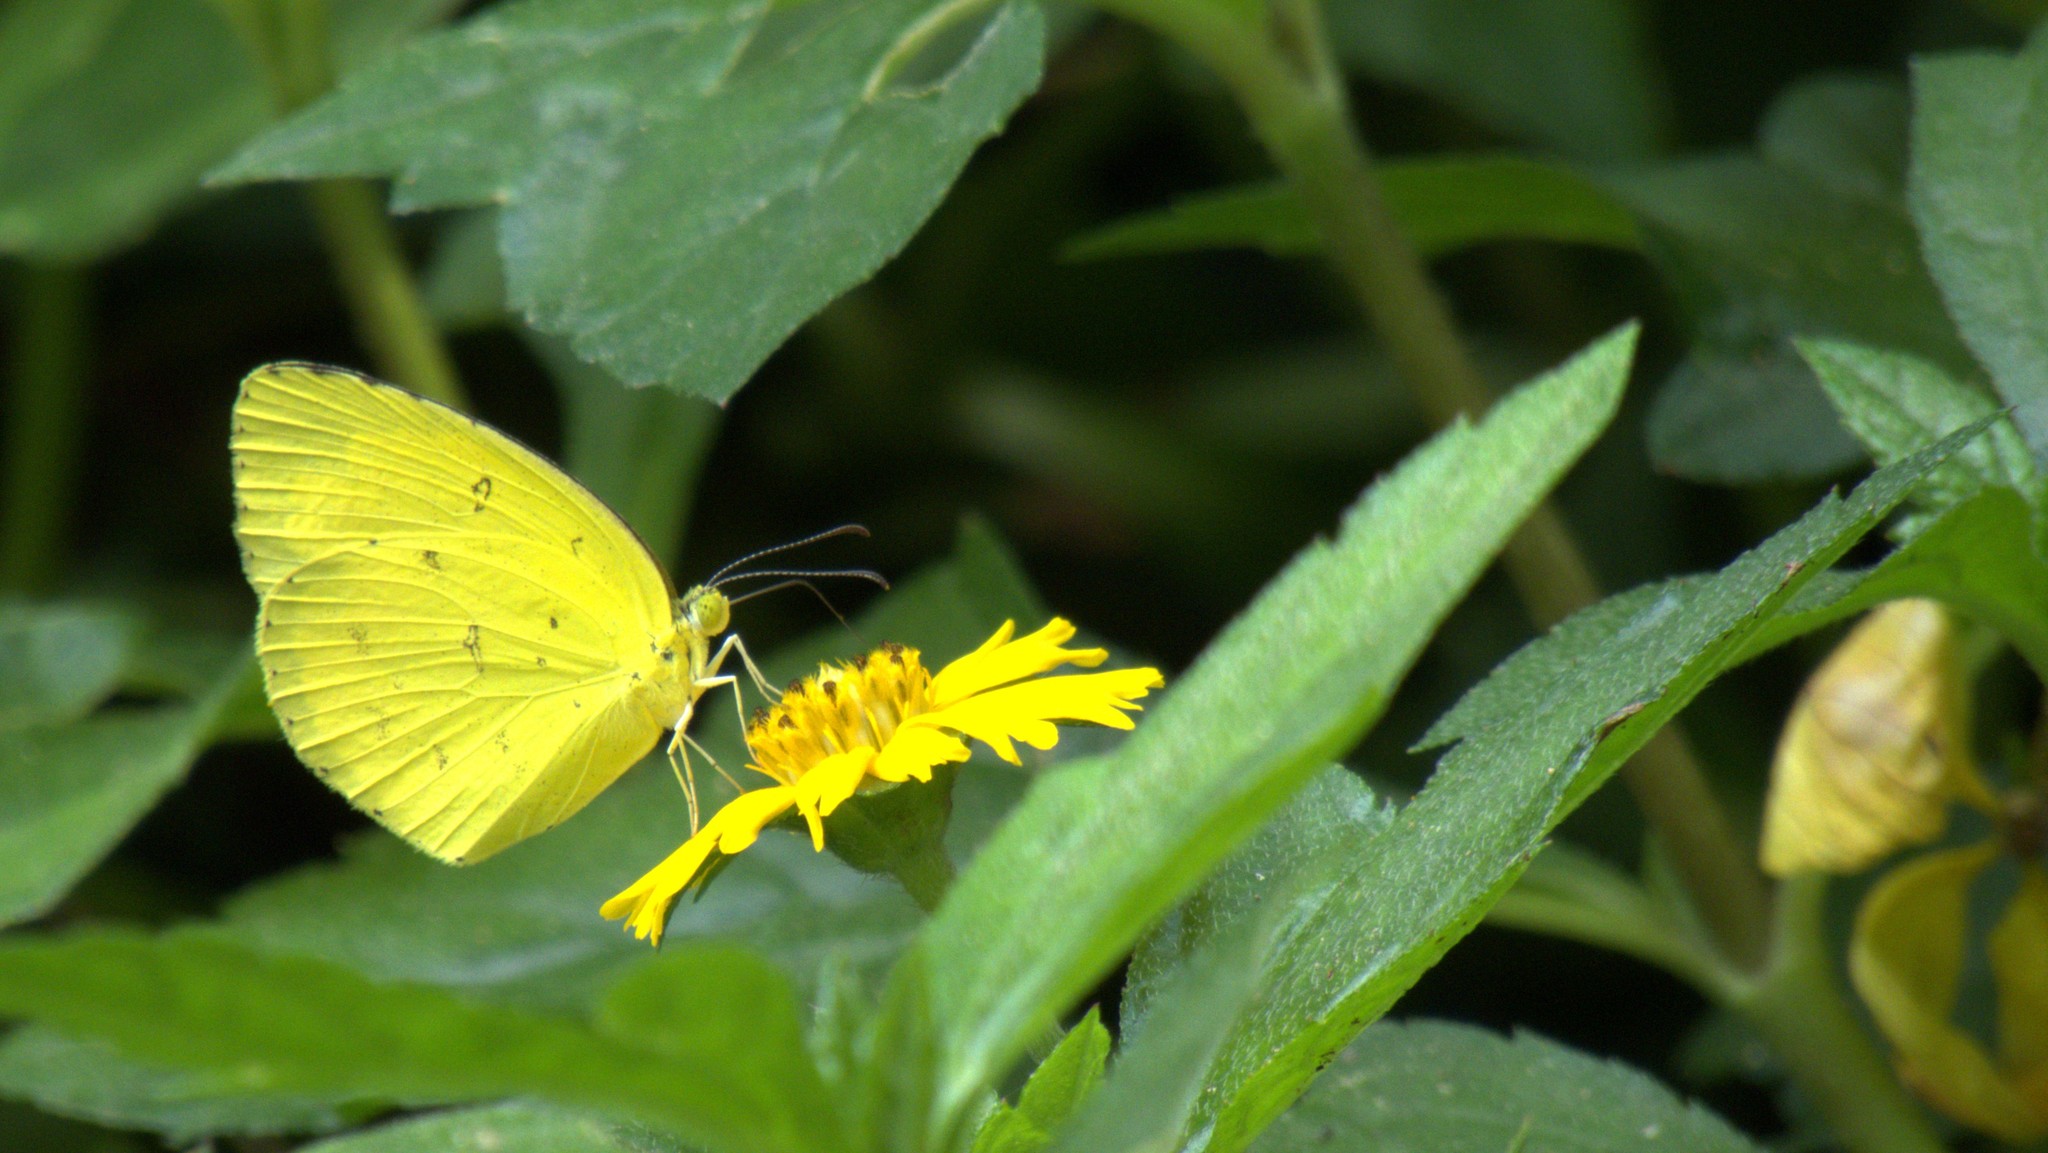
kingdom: Animalia
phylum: Arthropoda
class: Insecta
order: Lepidoptera
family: Pieridae
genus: Eurema
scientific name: Eurema hecabe
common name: Pale grass yellow
